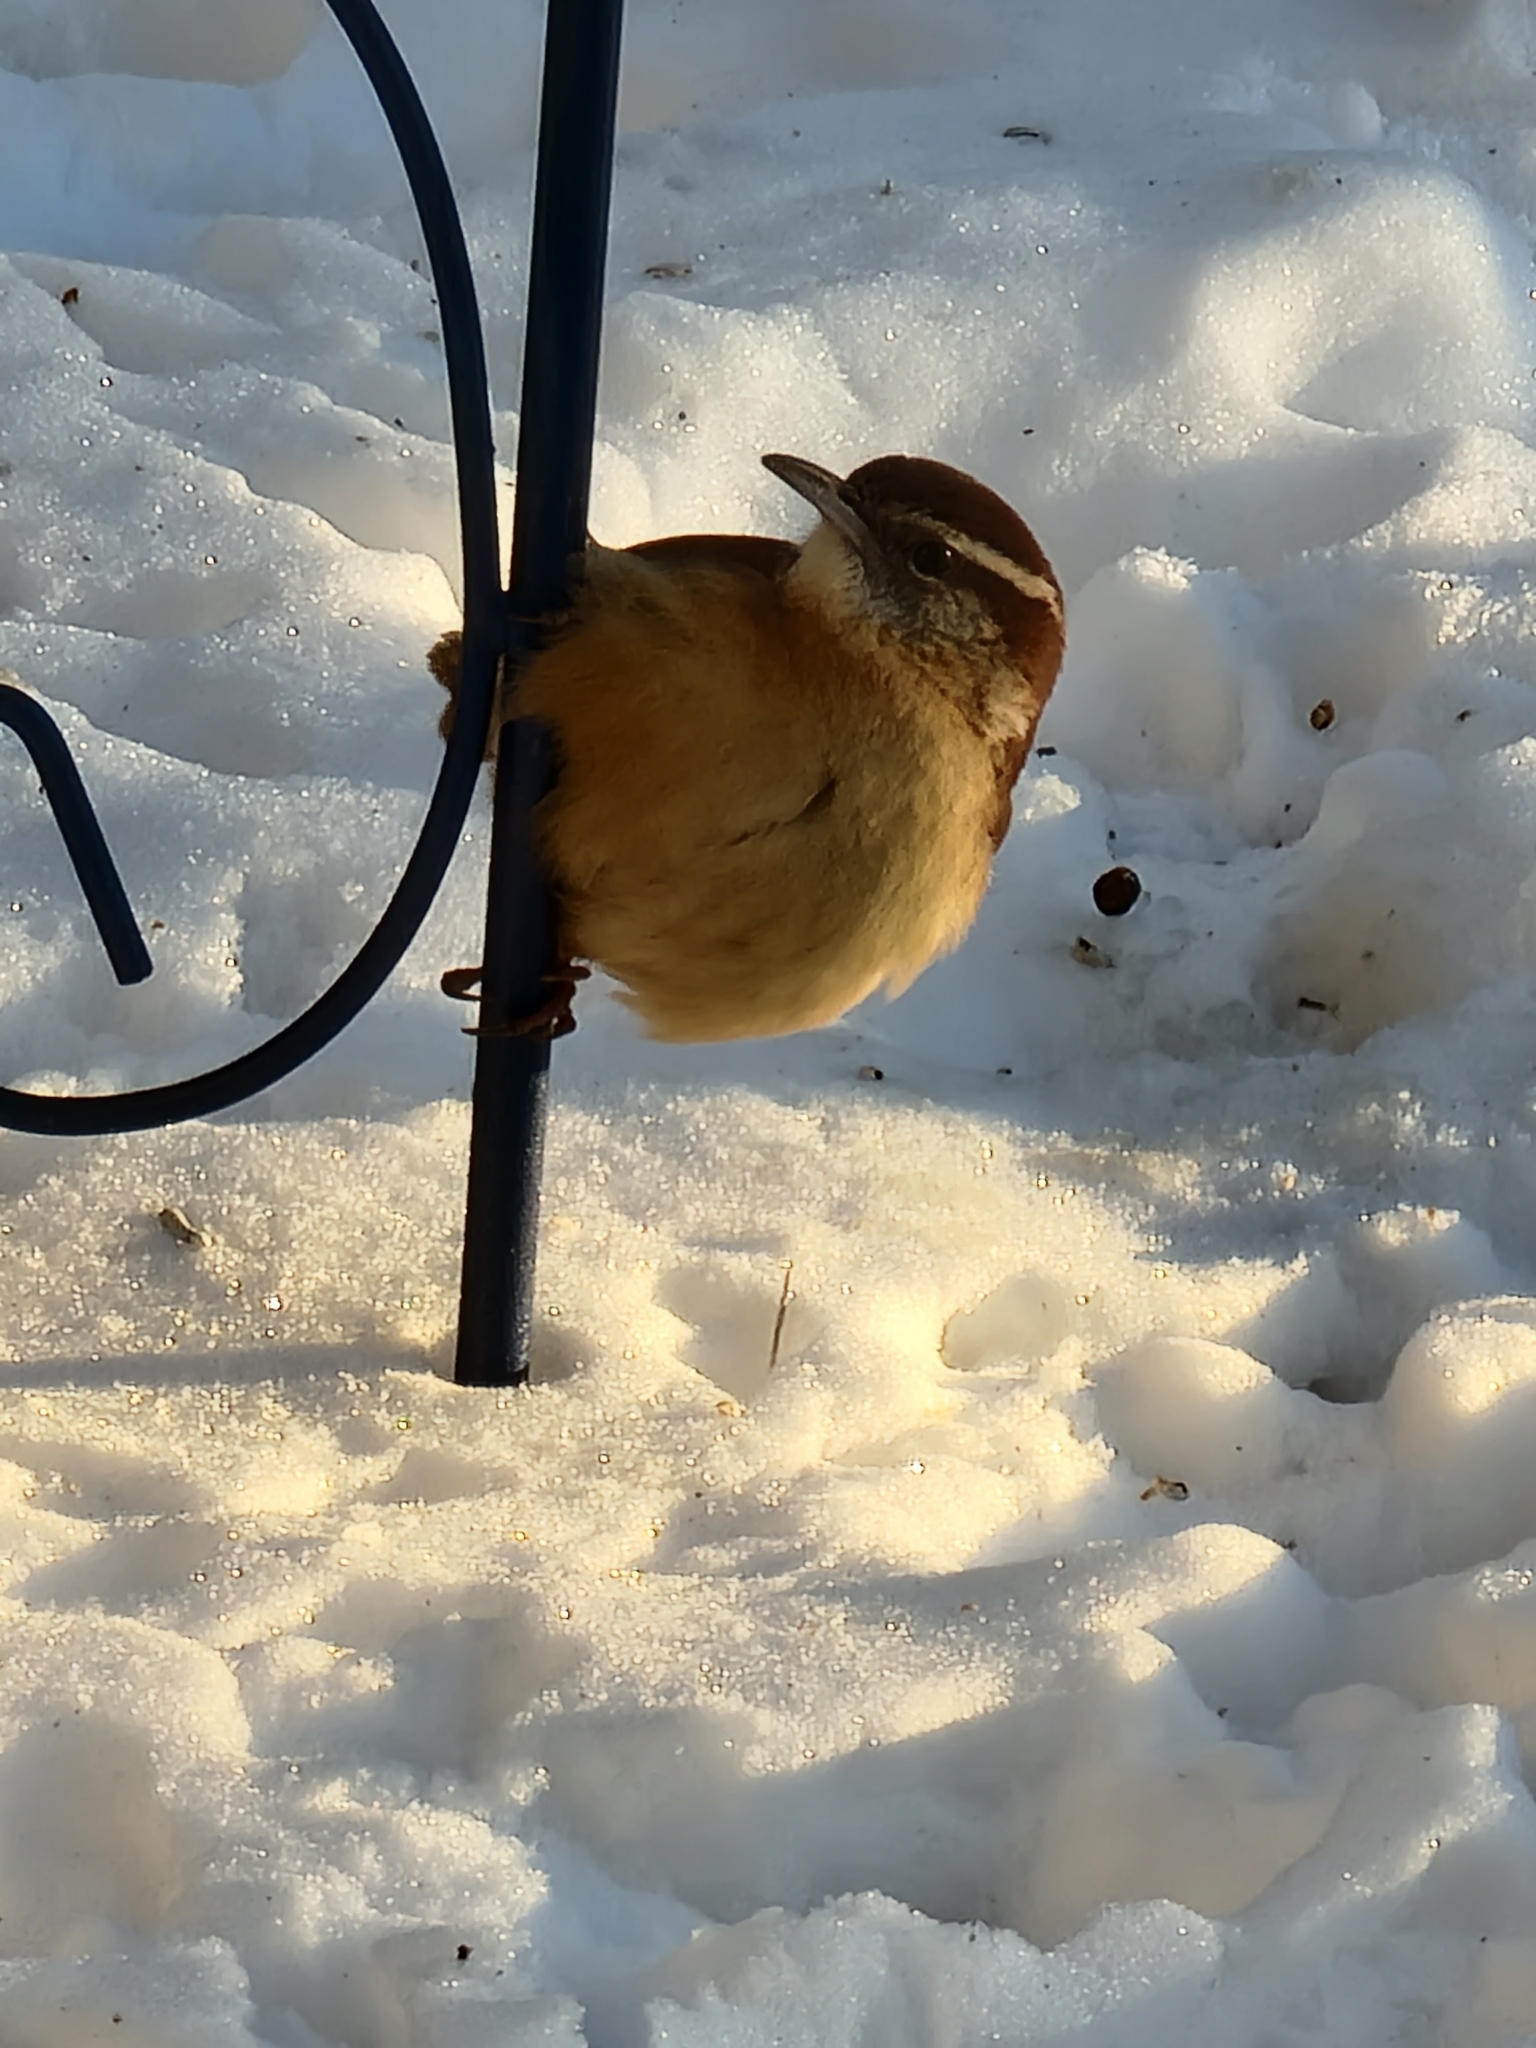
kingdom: Animalia
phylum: Chordata
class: Aves
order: Passeriformes
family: Troglodytidae
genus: Thryothorus
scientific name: Thryothorus ludovicianus
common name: Carolina wren
